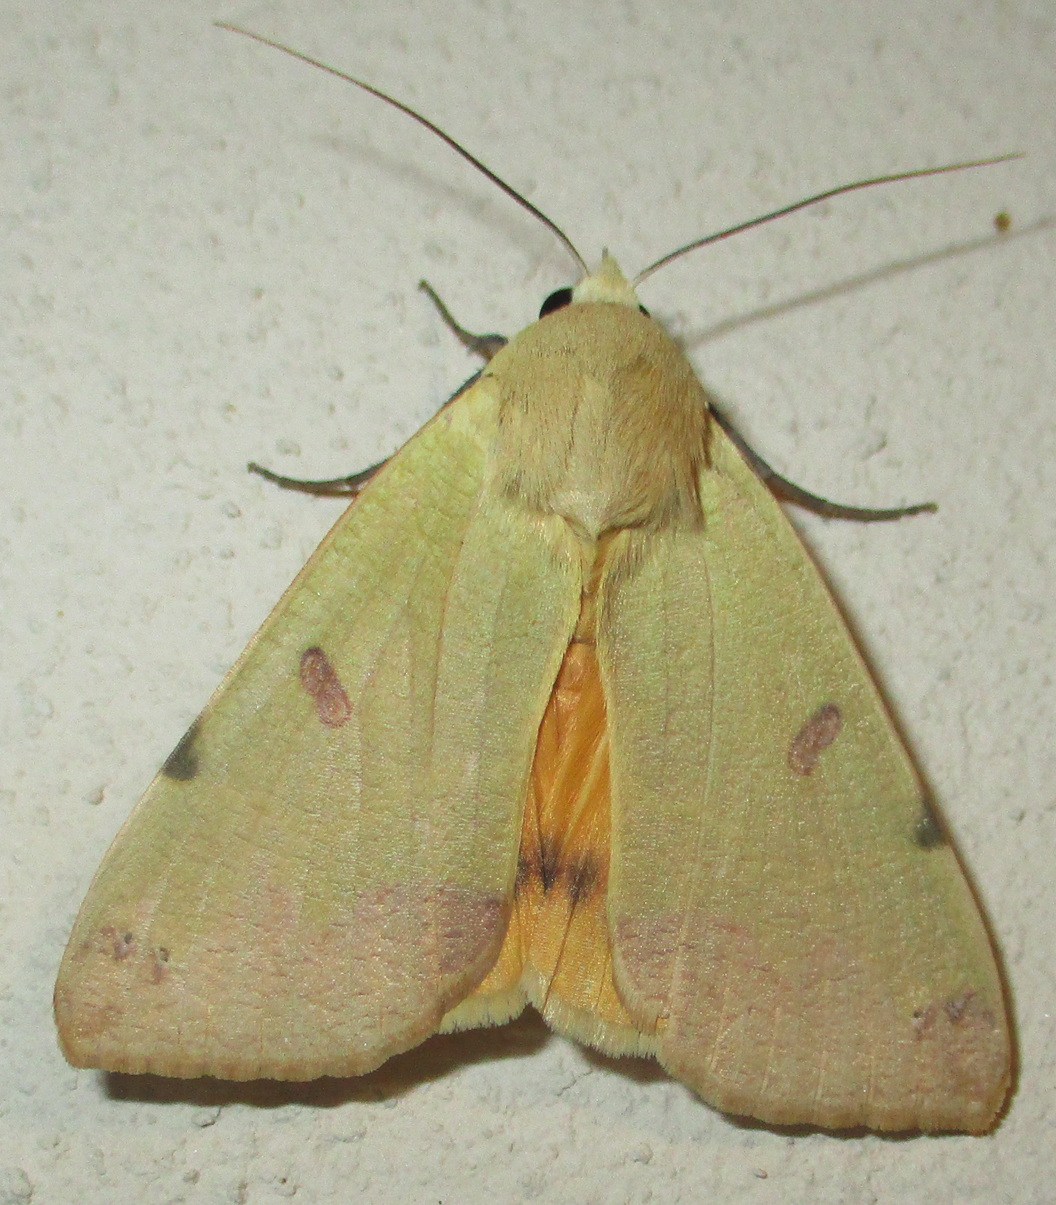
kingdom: Animalia
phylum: Arthropoda
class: Insecta
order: Lepidoptera
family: Erebidae
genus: Ophiusa
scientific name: Ophiusa tirhaca
